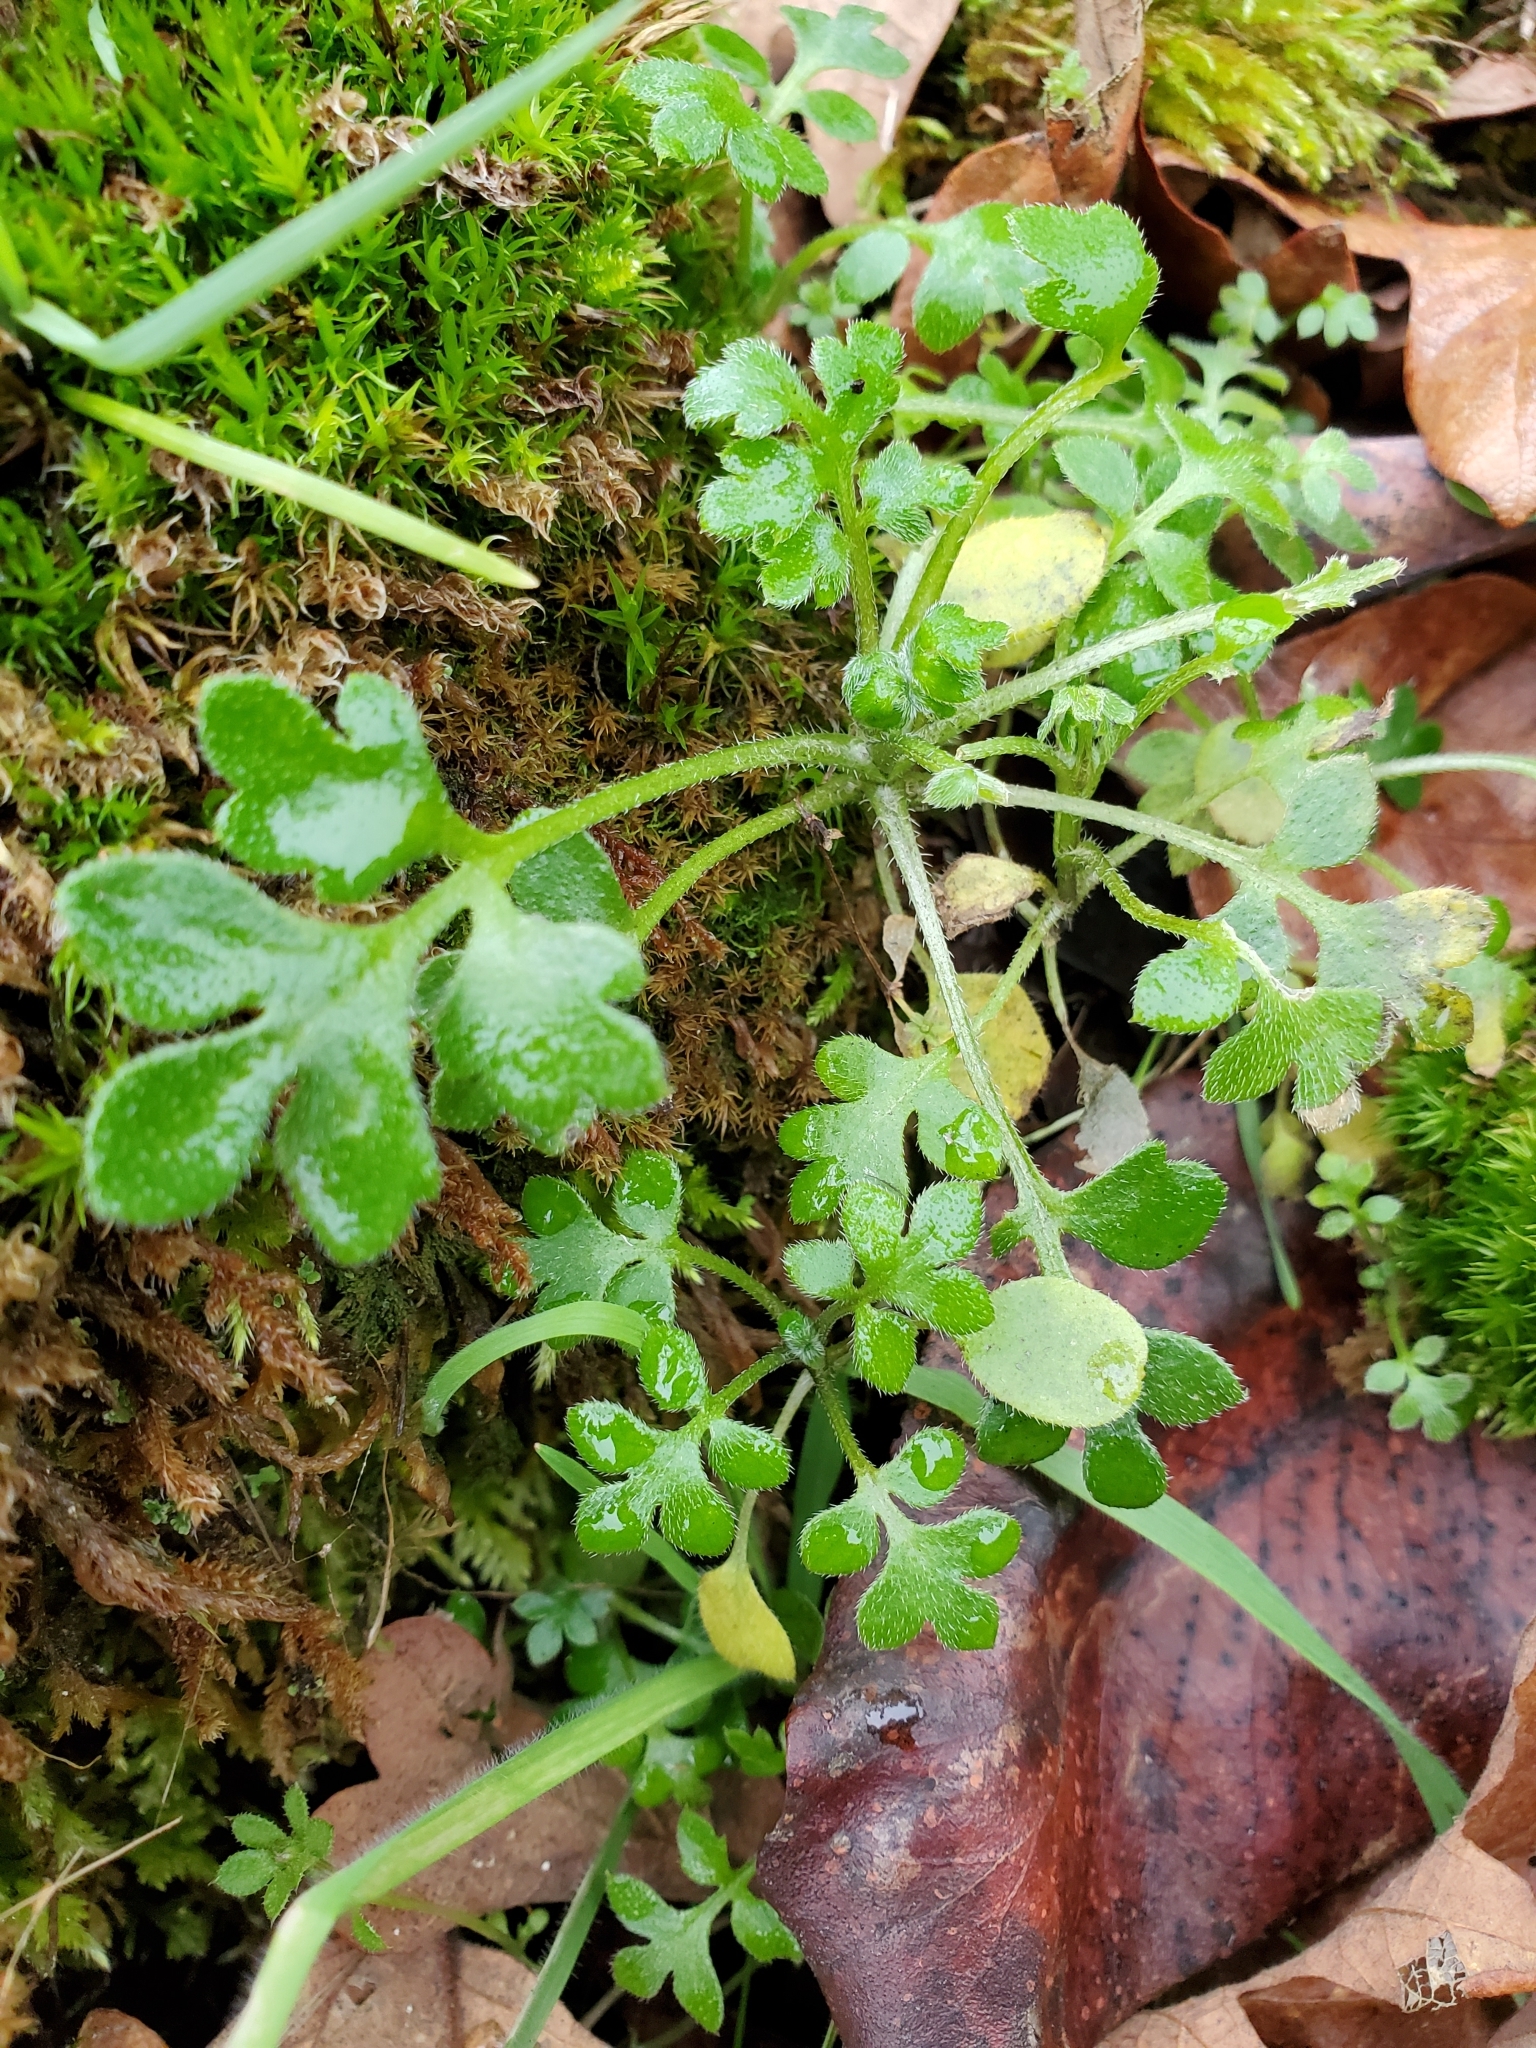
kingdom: Plantae
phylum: Tracheophyta
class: Magnoliopsida
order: Boraginales
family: Hydrophyllaceae
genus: Nemophila
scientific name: Nemophila parviflora
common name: Small-flowered baby-blue-eyes
